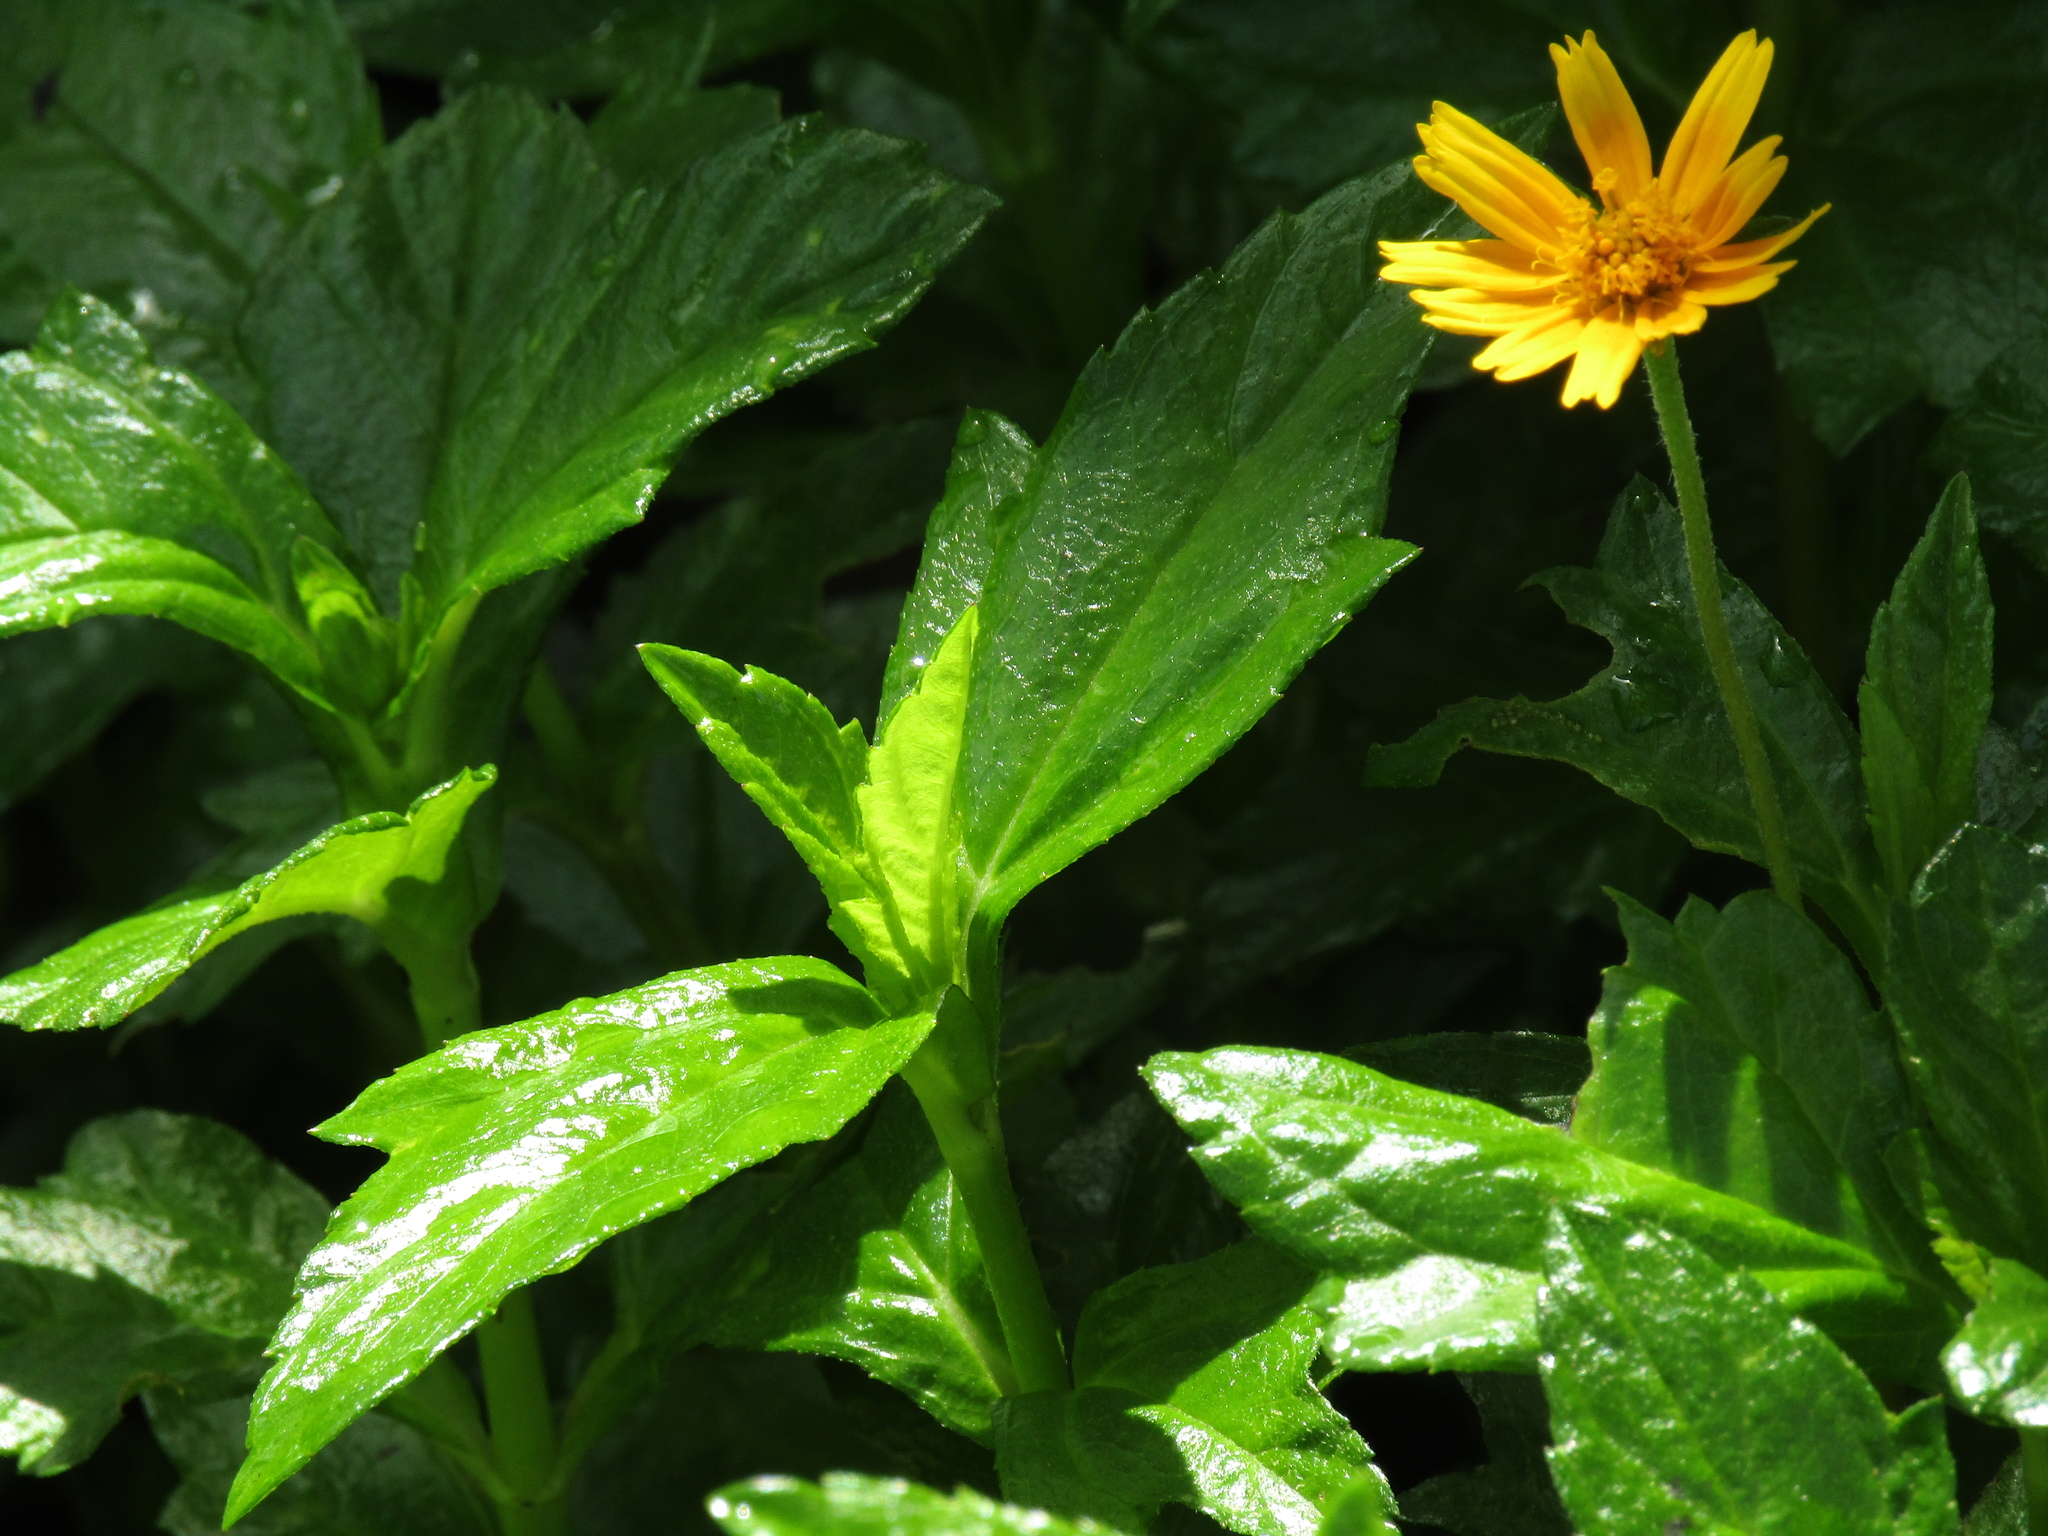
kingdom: Plantae
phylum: Tracheophyta
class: Magnoliopsida
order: Asterales
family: Asteraceae
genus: Sphagneticola
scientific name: Sphagneticola trilobata
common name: Bay biscayne creeping-oxeye
